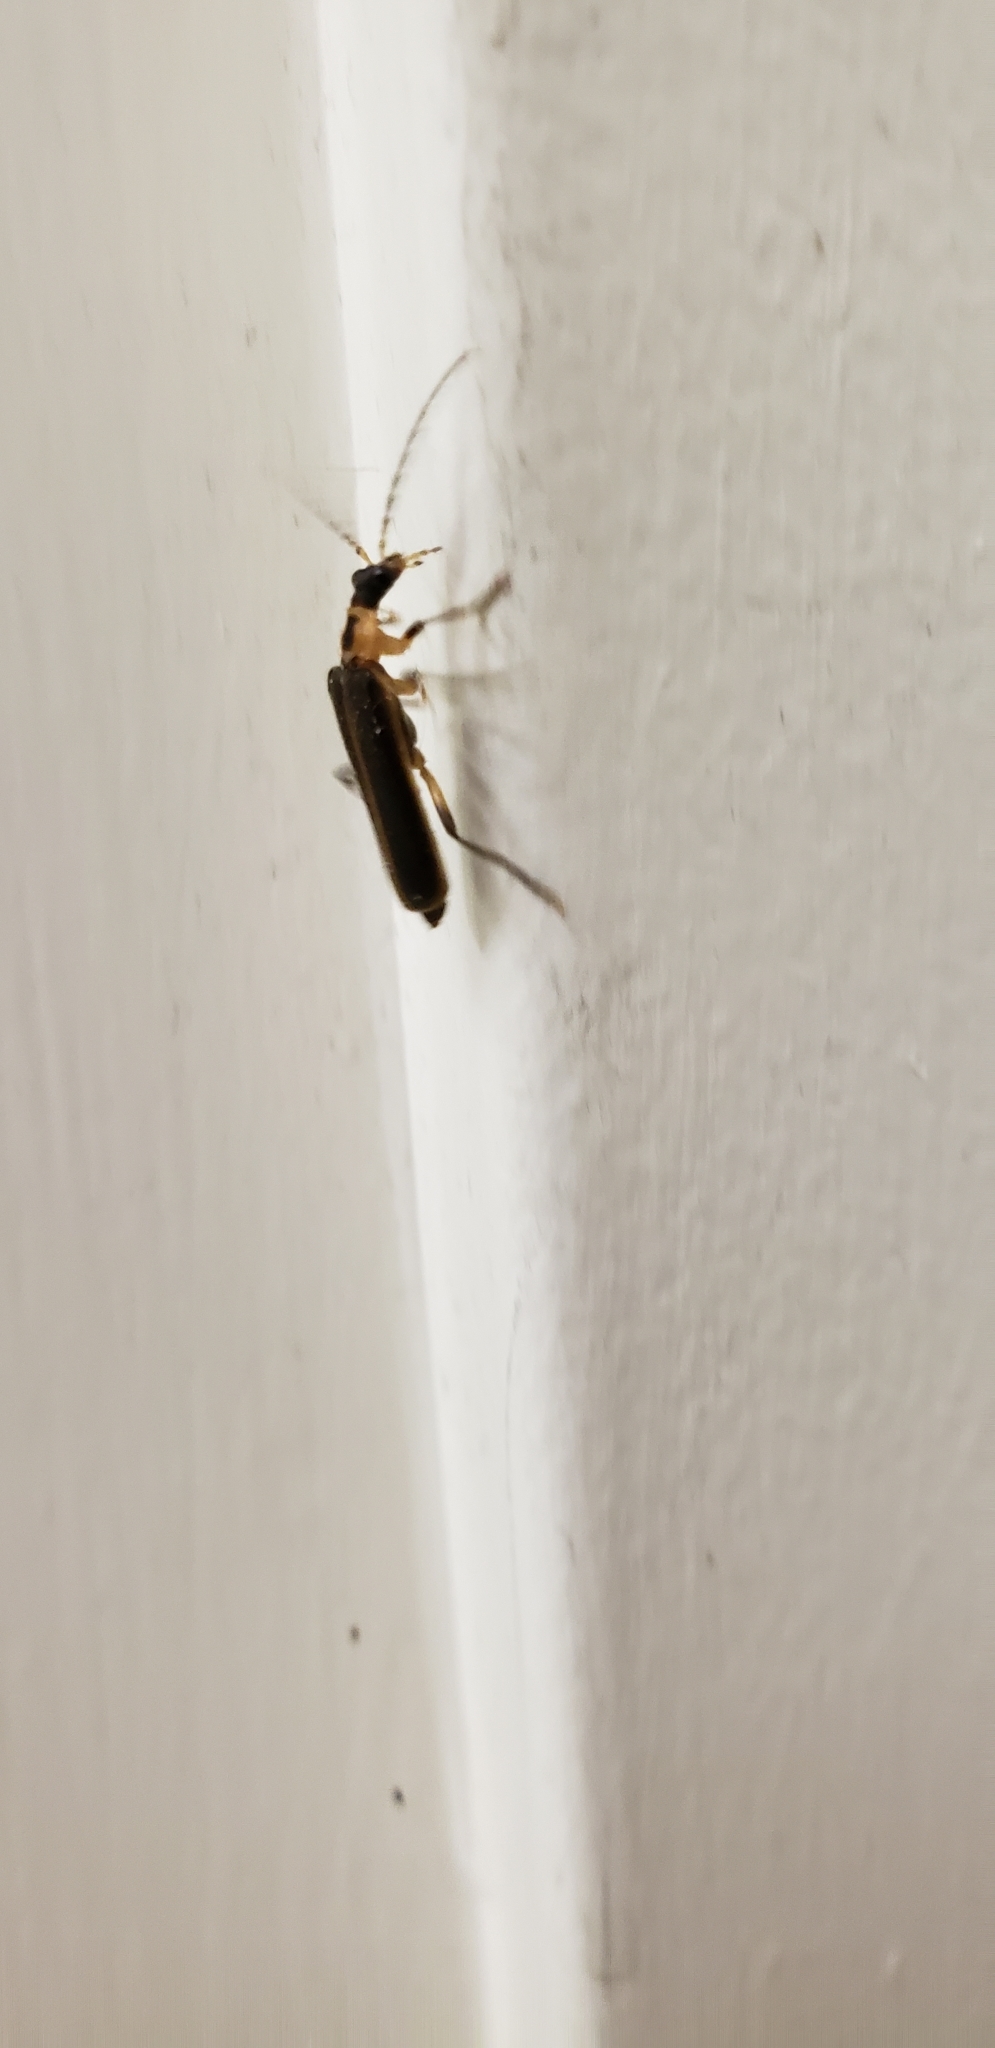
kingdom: Animalia
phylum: Arthropoda
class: Insecta
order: Coleoptera
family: Cantharidae
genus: Podabrus
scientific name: Podabrus basilaris
